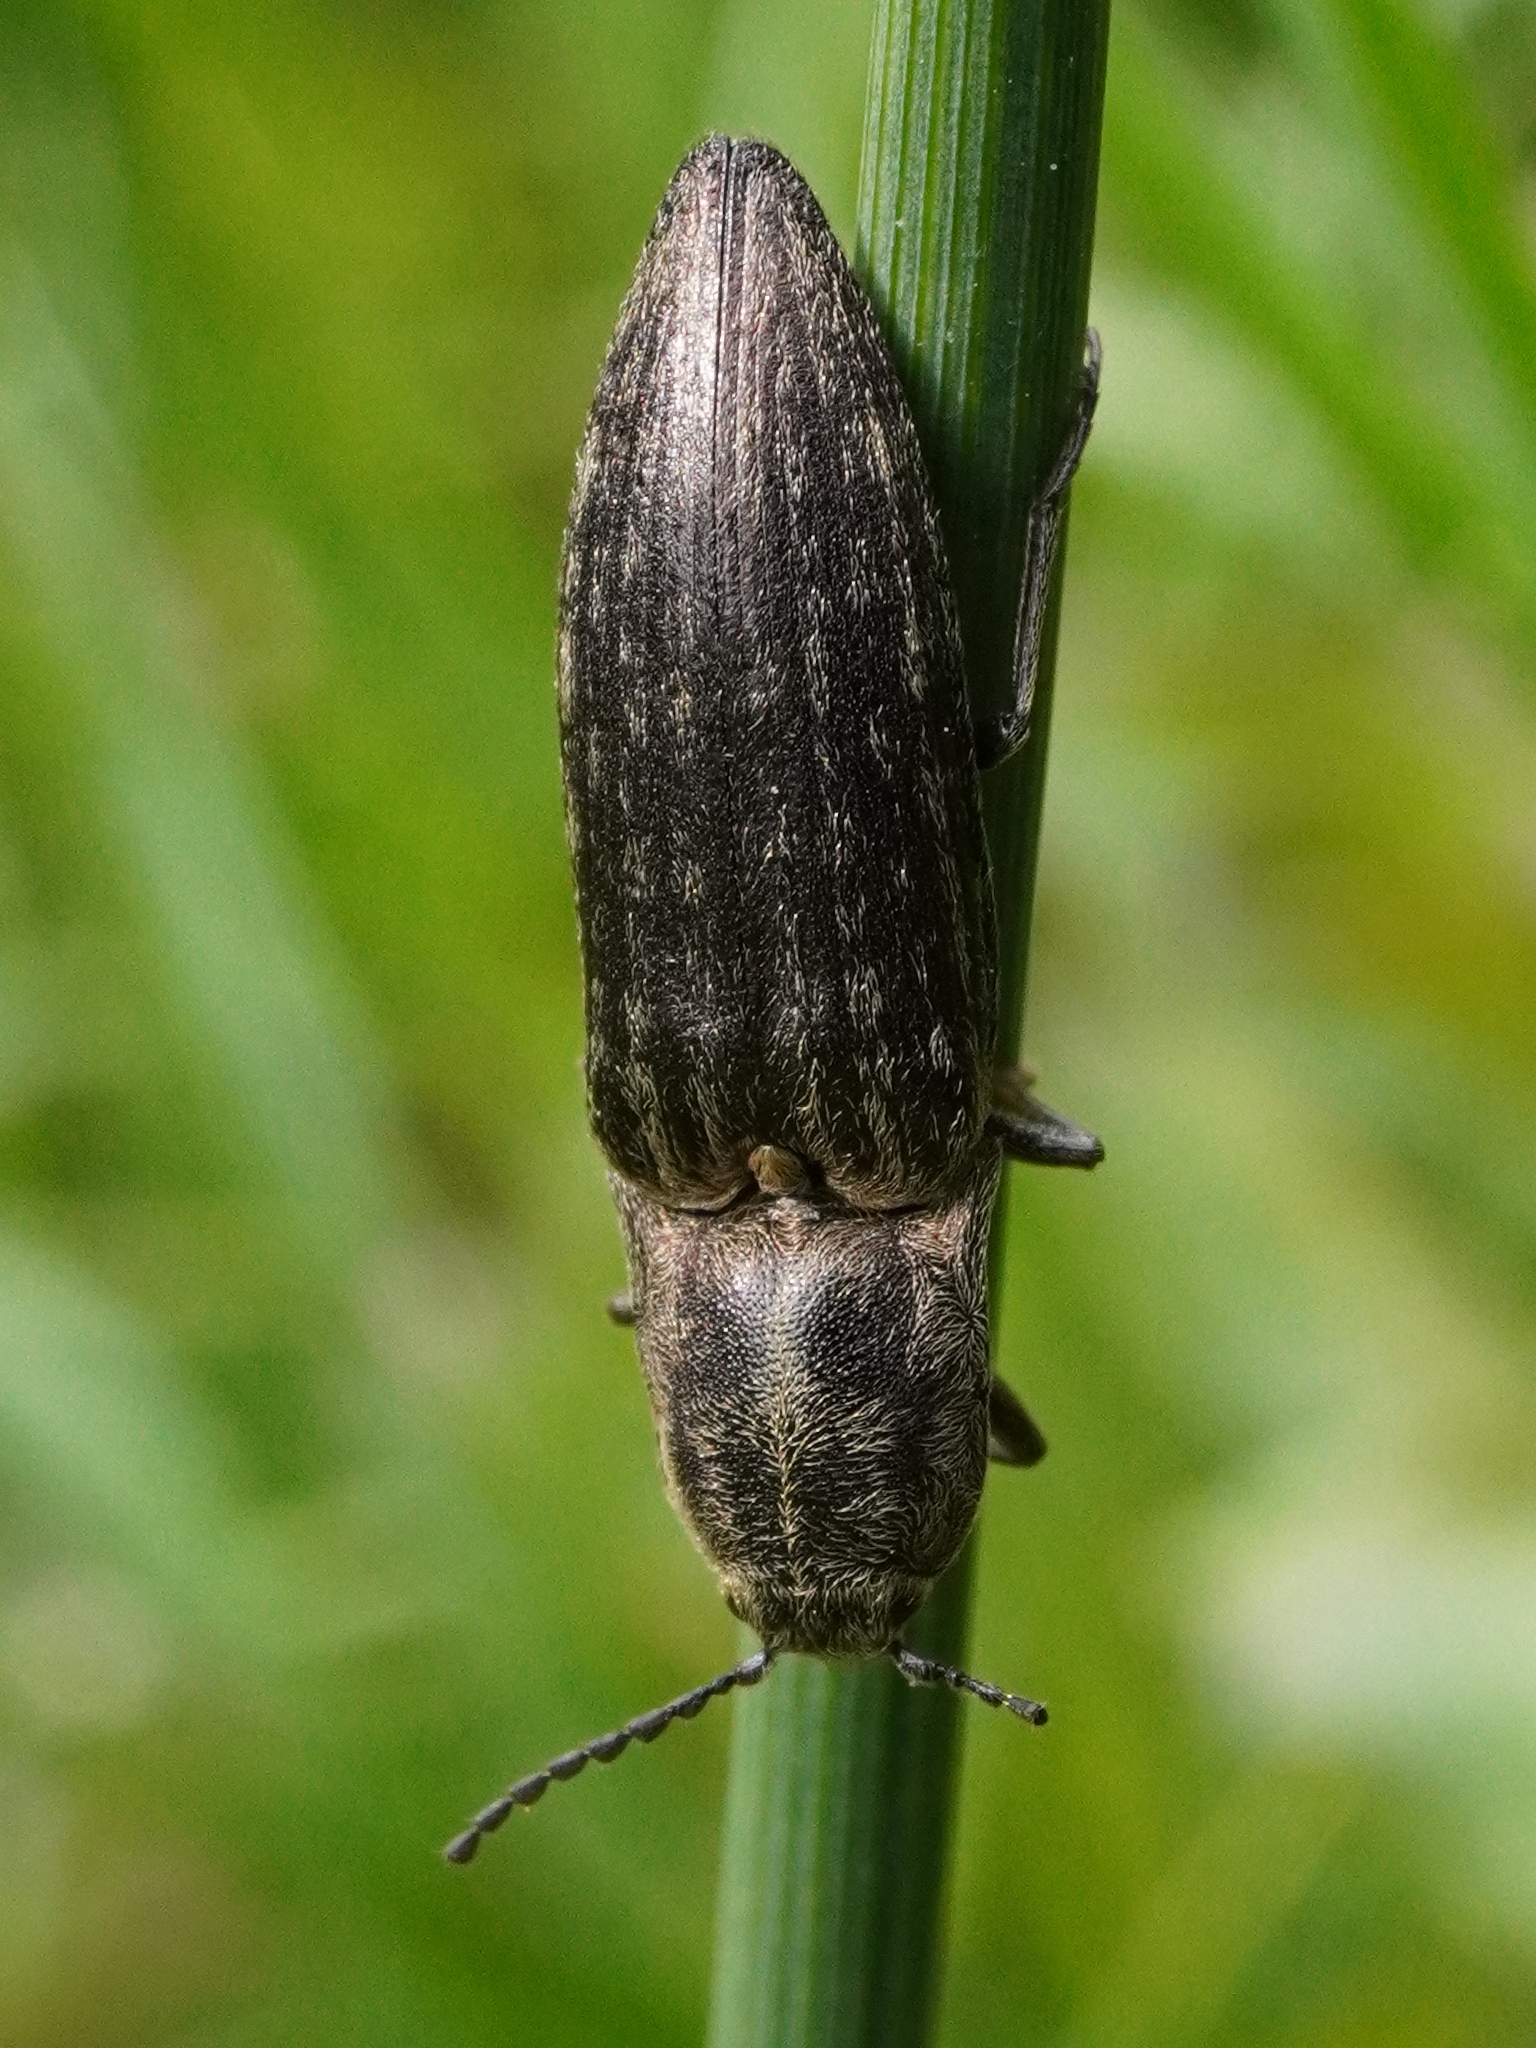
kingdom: Animalia
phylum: Arthropoda
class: Insecta
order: Coleoptera
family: Elateridae
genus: Actenicerus
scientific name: Actenicerus sjaelandicus
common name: Marsh click beetle
